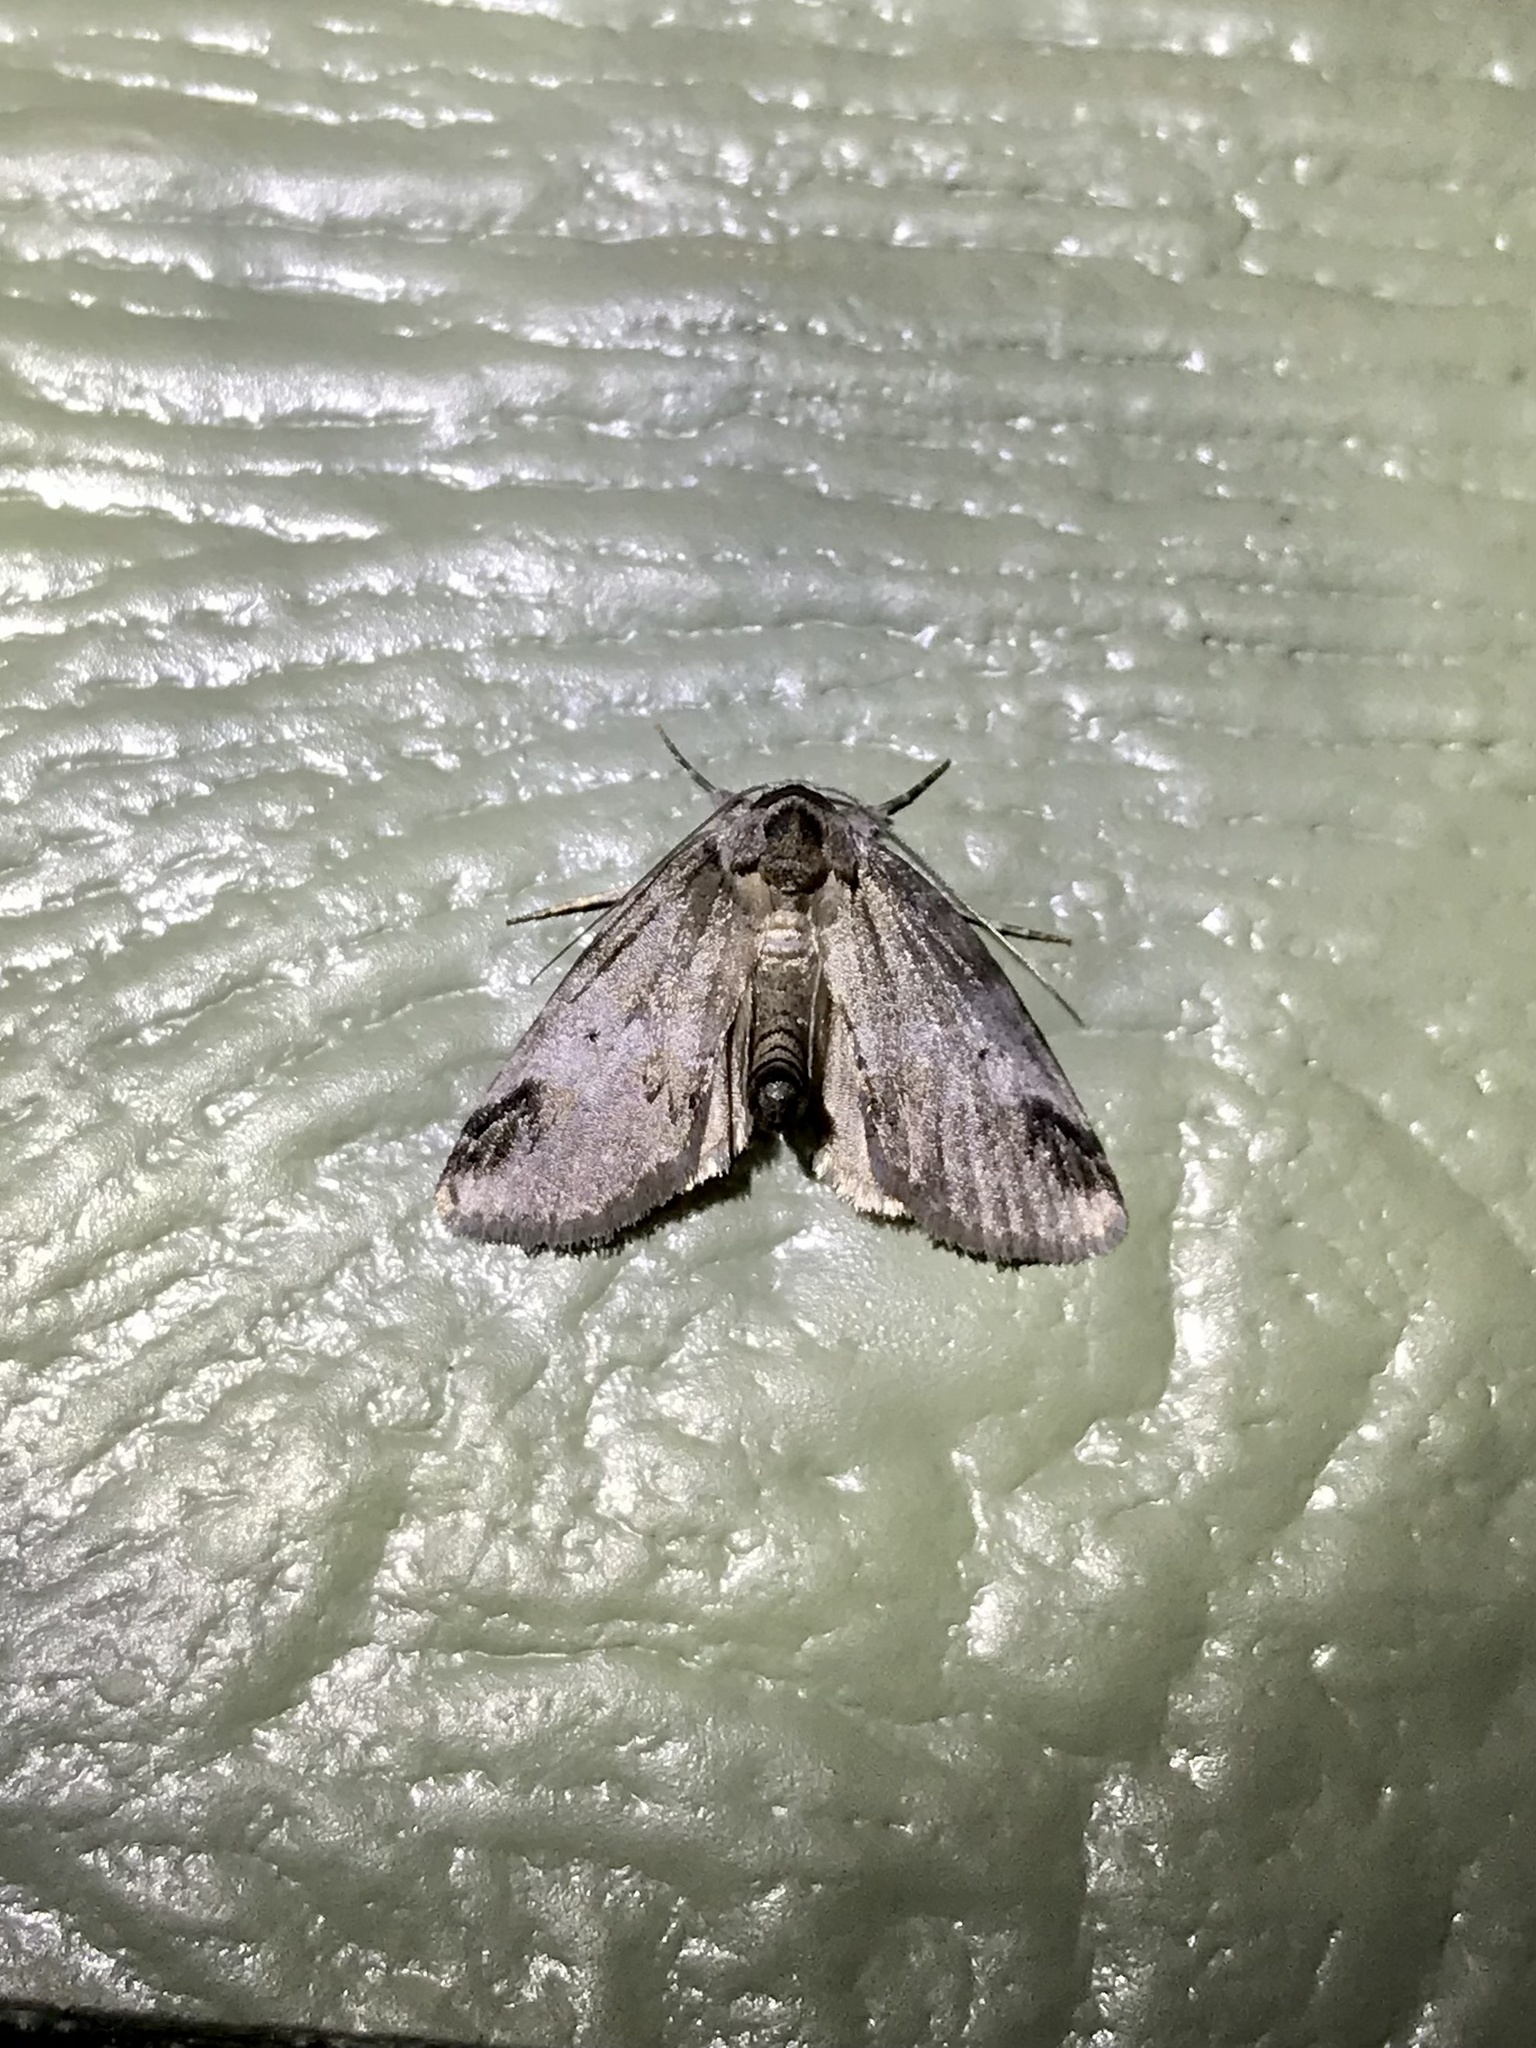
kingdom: Animalia
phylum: Arthropoda
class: Insecta
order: Lepidoptera
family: Nolidae
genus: Baileya
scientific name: Baileya dormitans
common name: Sleeping baileya moth
